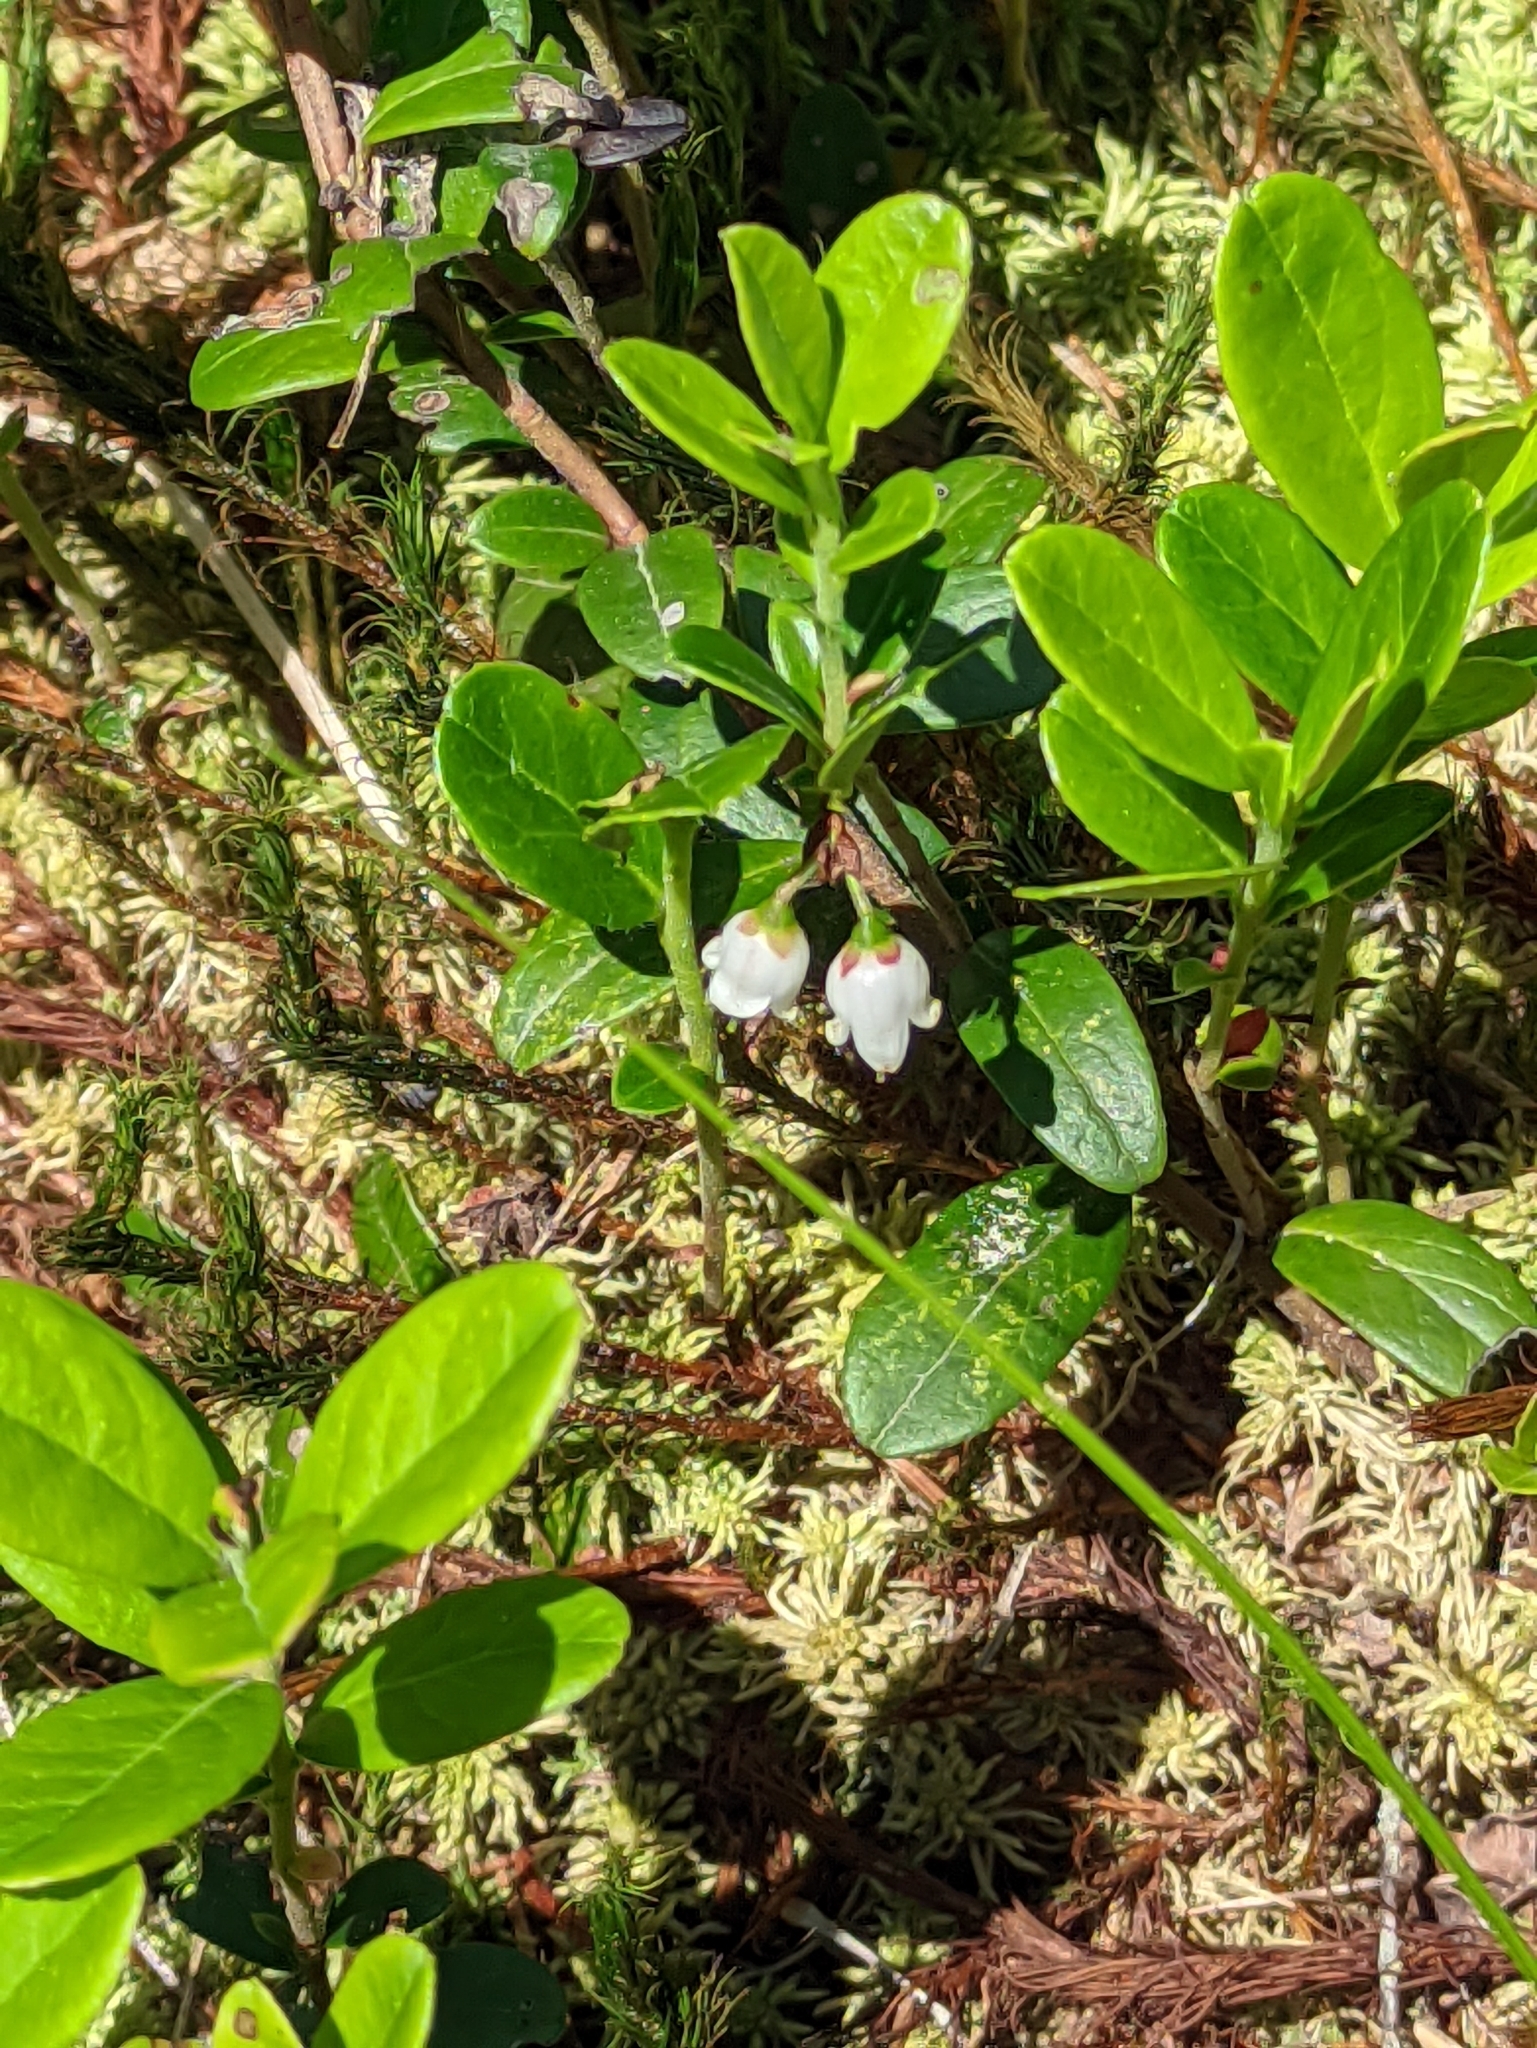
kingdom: Plantae
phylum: Tracheophyta
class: Magnoliopsida
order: Ericales
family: Ericaceae
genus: Vaccinium
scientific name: Vaccinium vitis-idaea
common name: Cowberry
